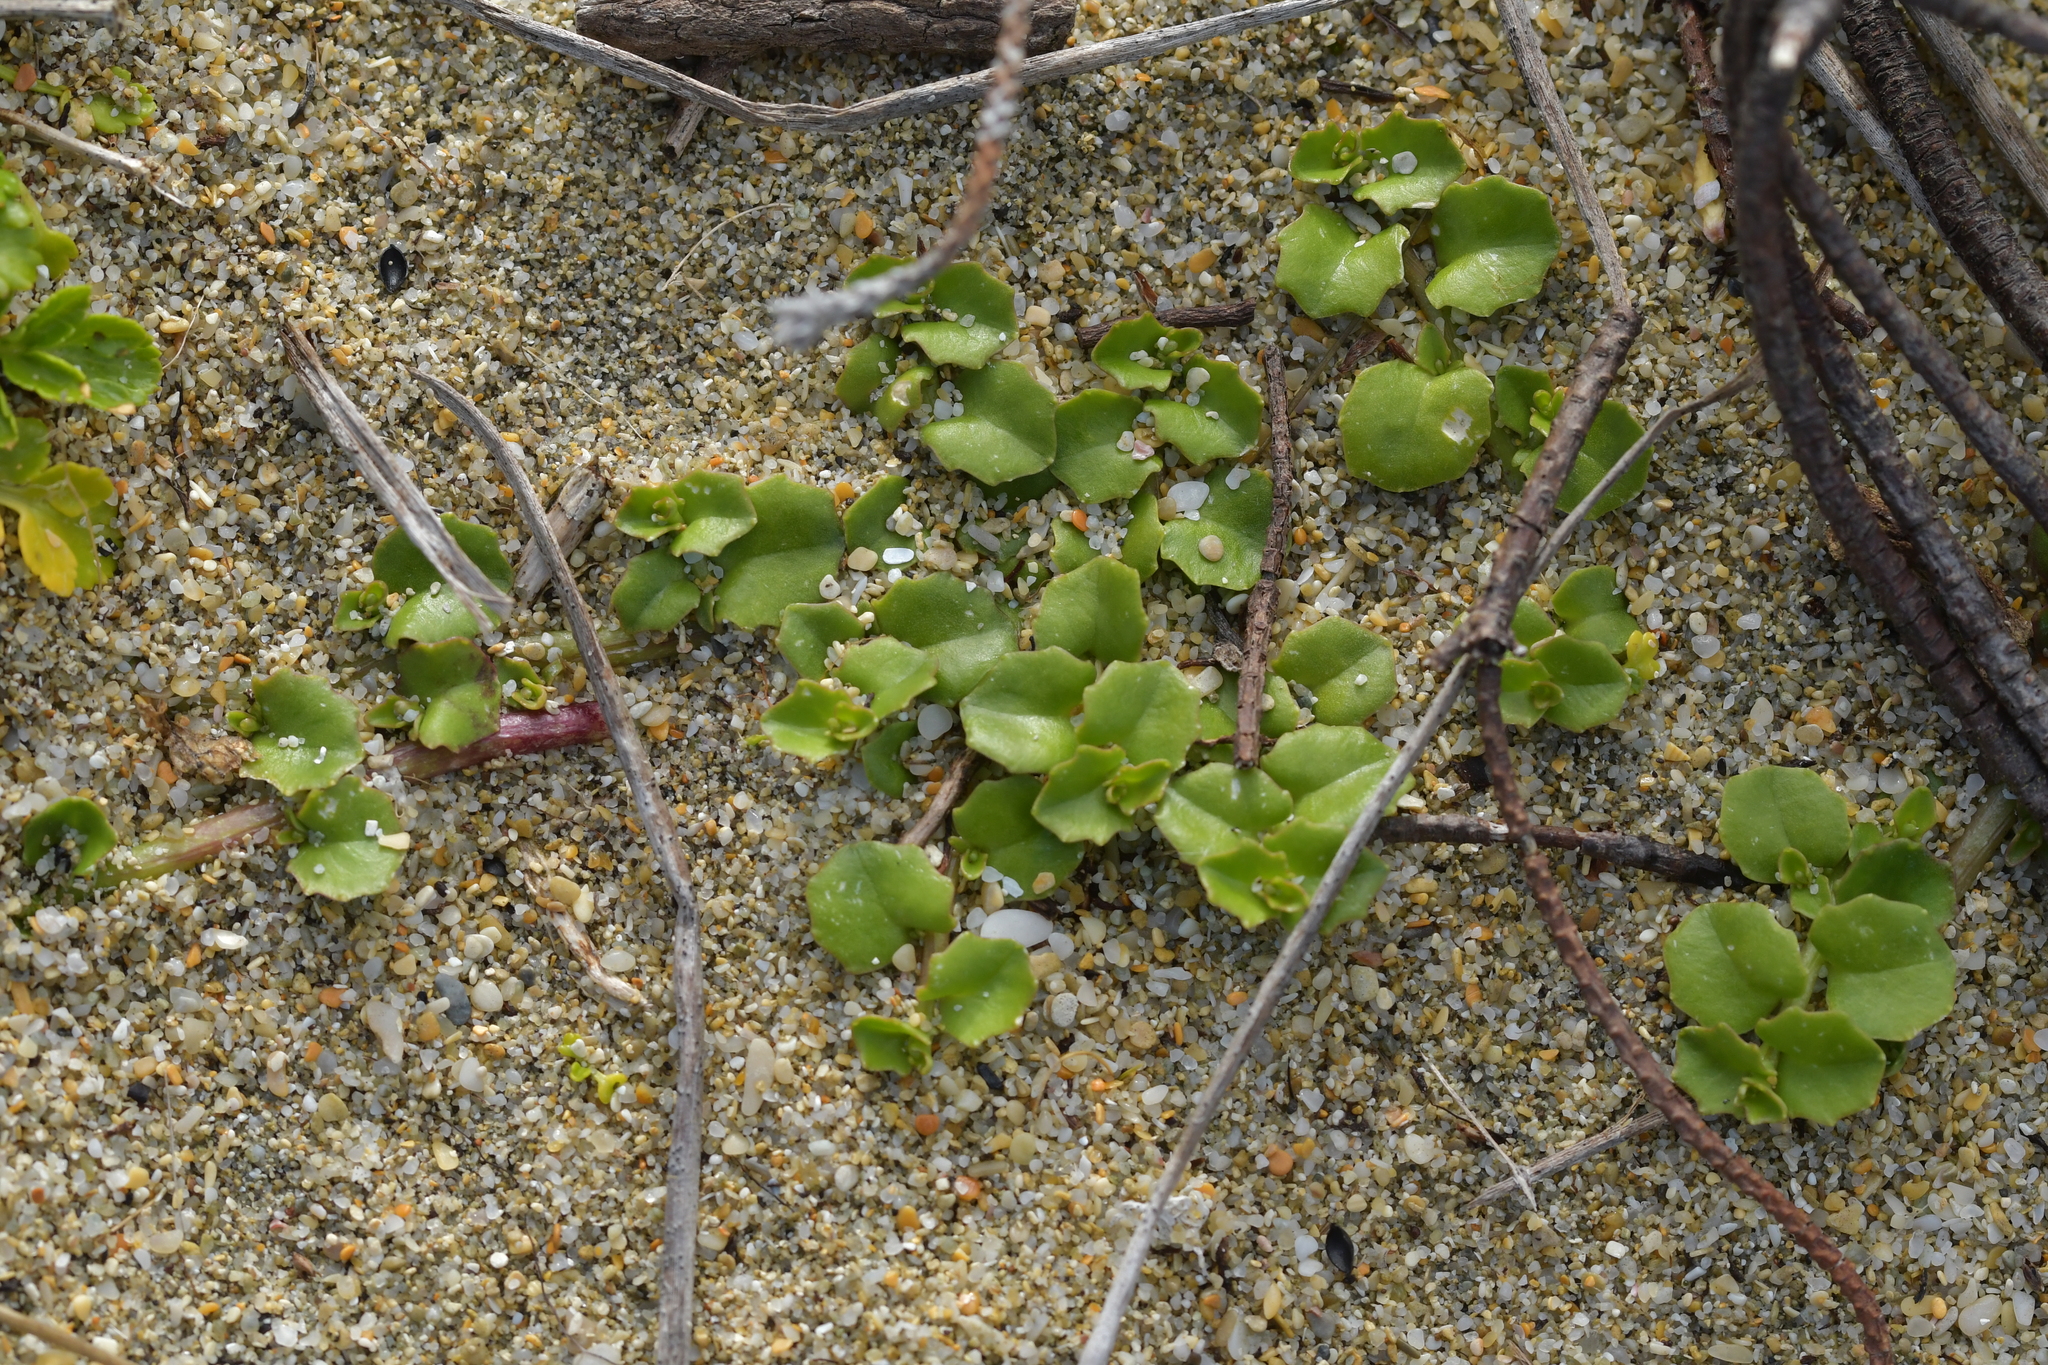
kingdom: Plantae
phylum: Tracheophyta
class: Magnoliopsida
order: Asterales
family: Campanulaceae
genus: Lobelia
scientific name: Lobelia arenaria
